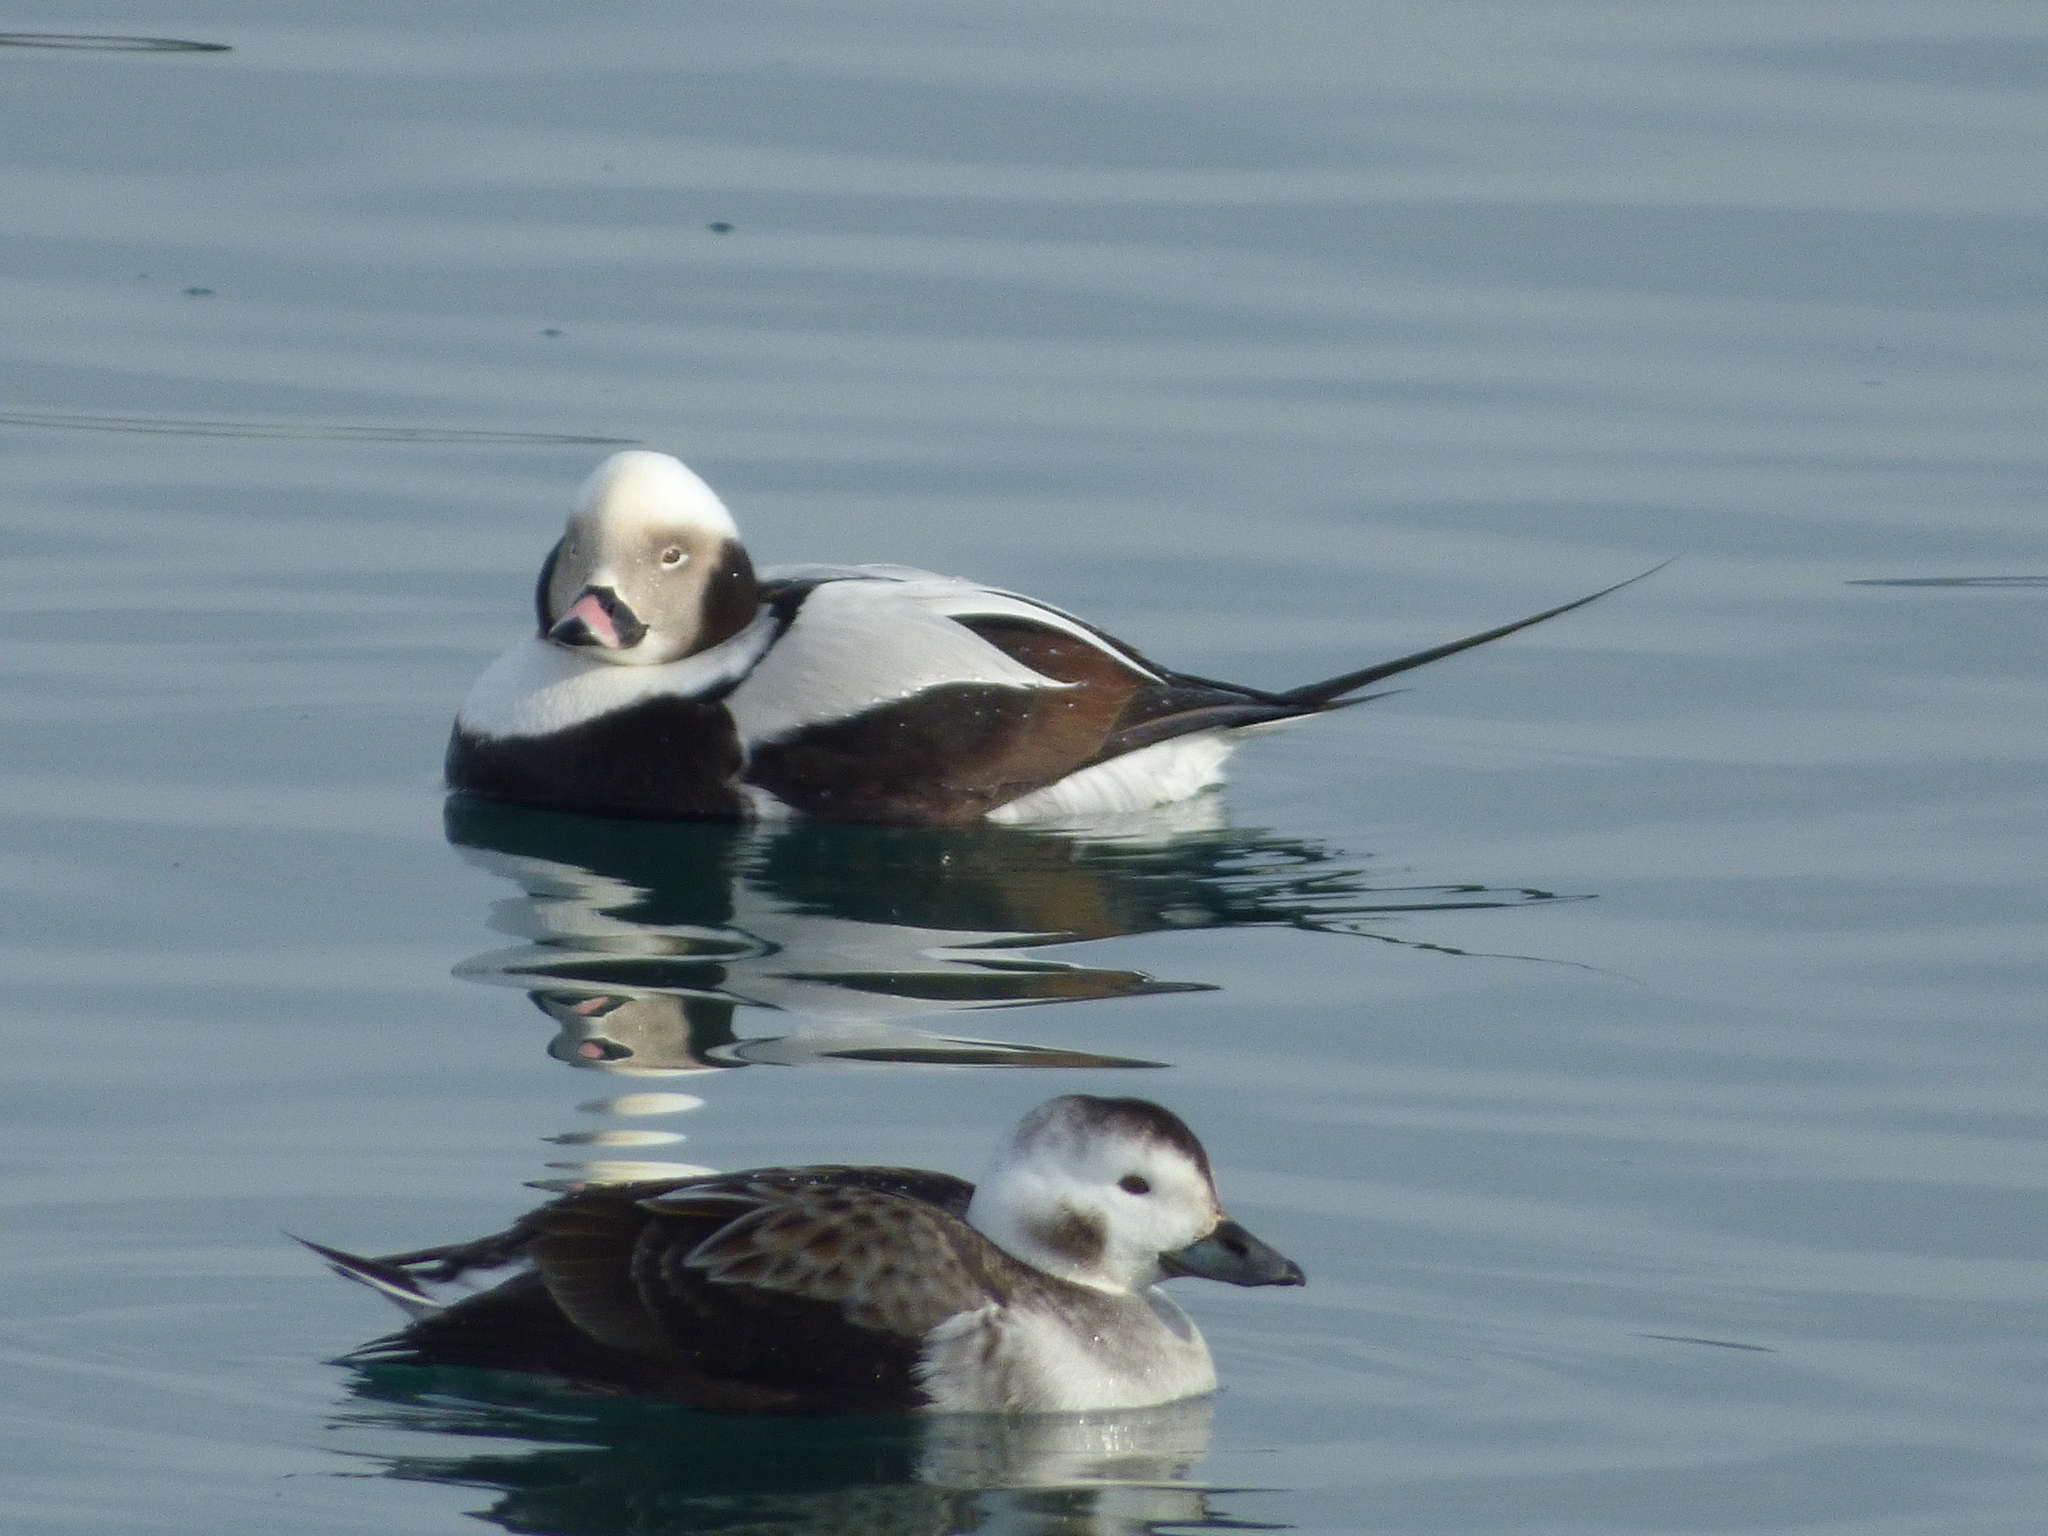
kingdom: Animalia
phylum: Chordata
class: Aves
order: Anseriformes
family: Anatidae
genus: Clangula
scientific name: Clangula hyemalis
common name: Long-tailed duck
